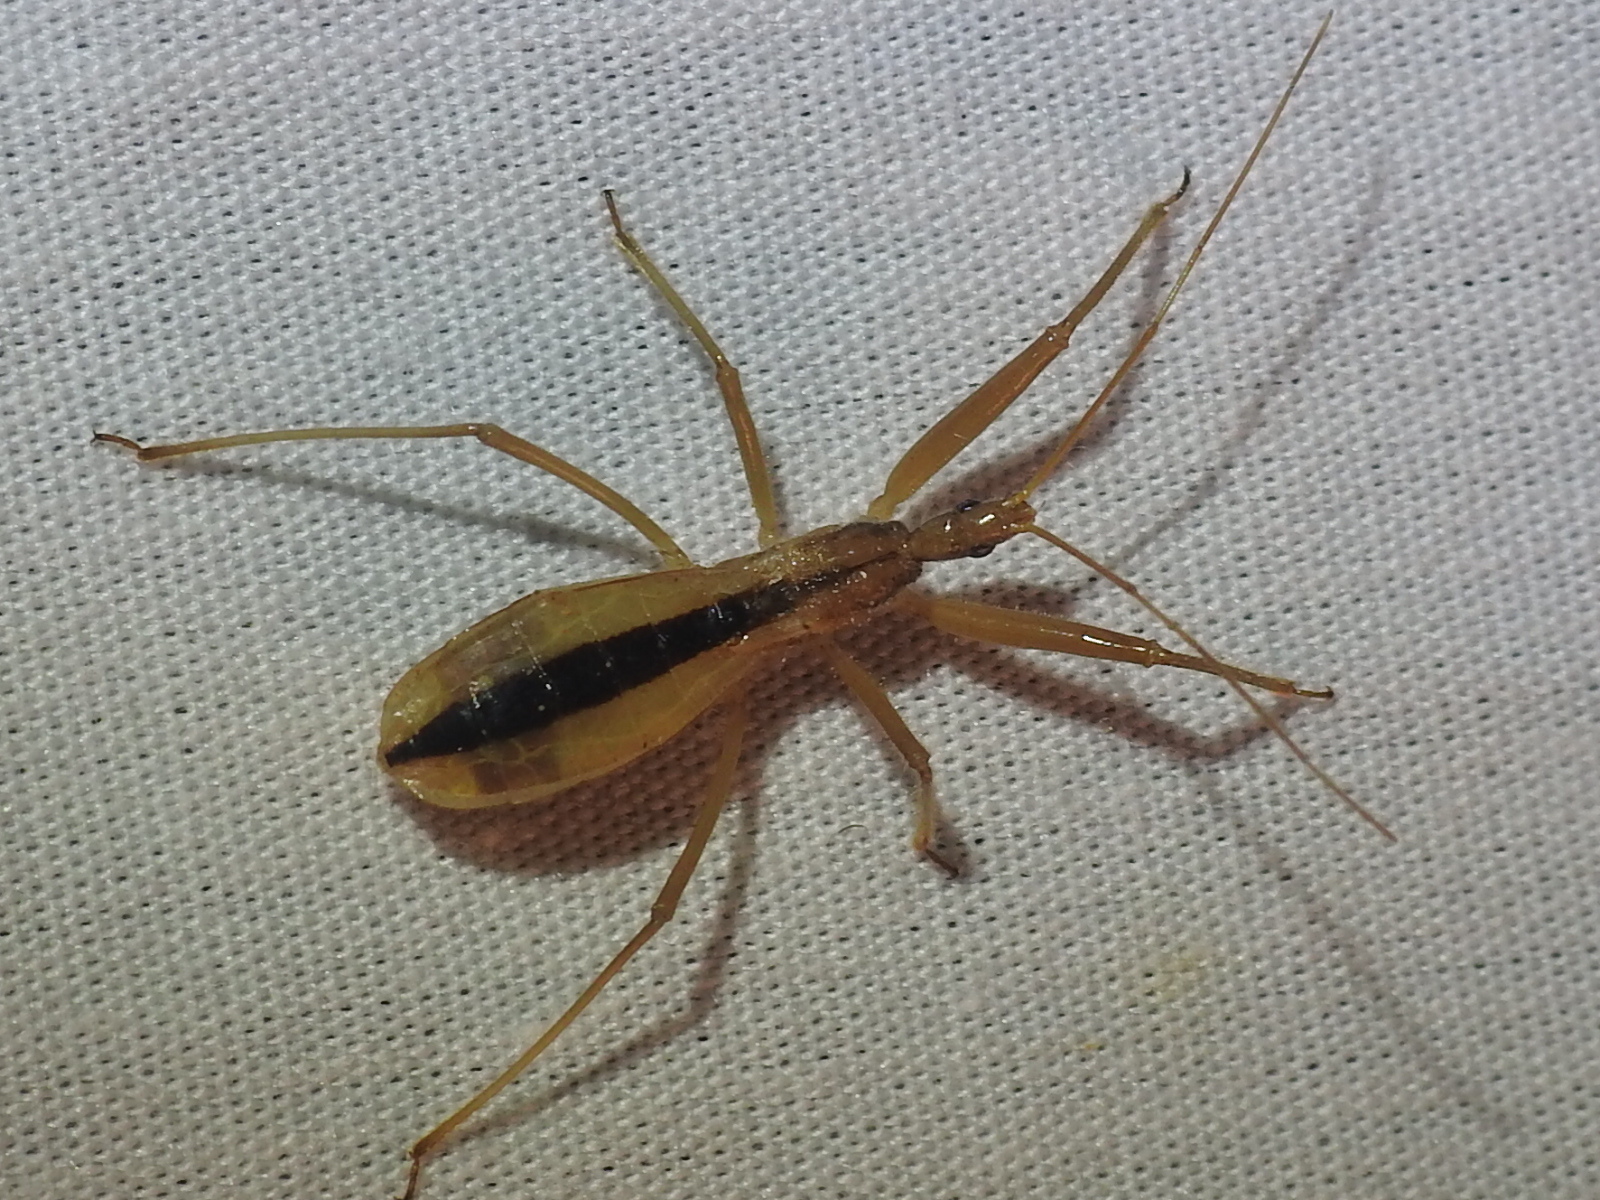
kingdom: Animalia
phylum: Arthropoda
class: Insecta
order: Hemiptera
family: Reduviidae
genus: Fitchia
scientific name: Fitchia aptera
